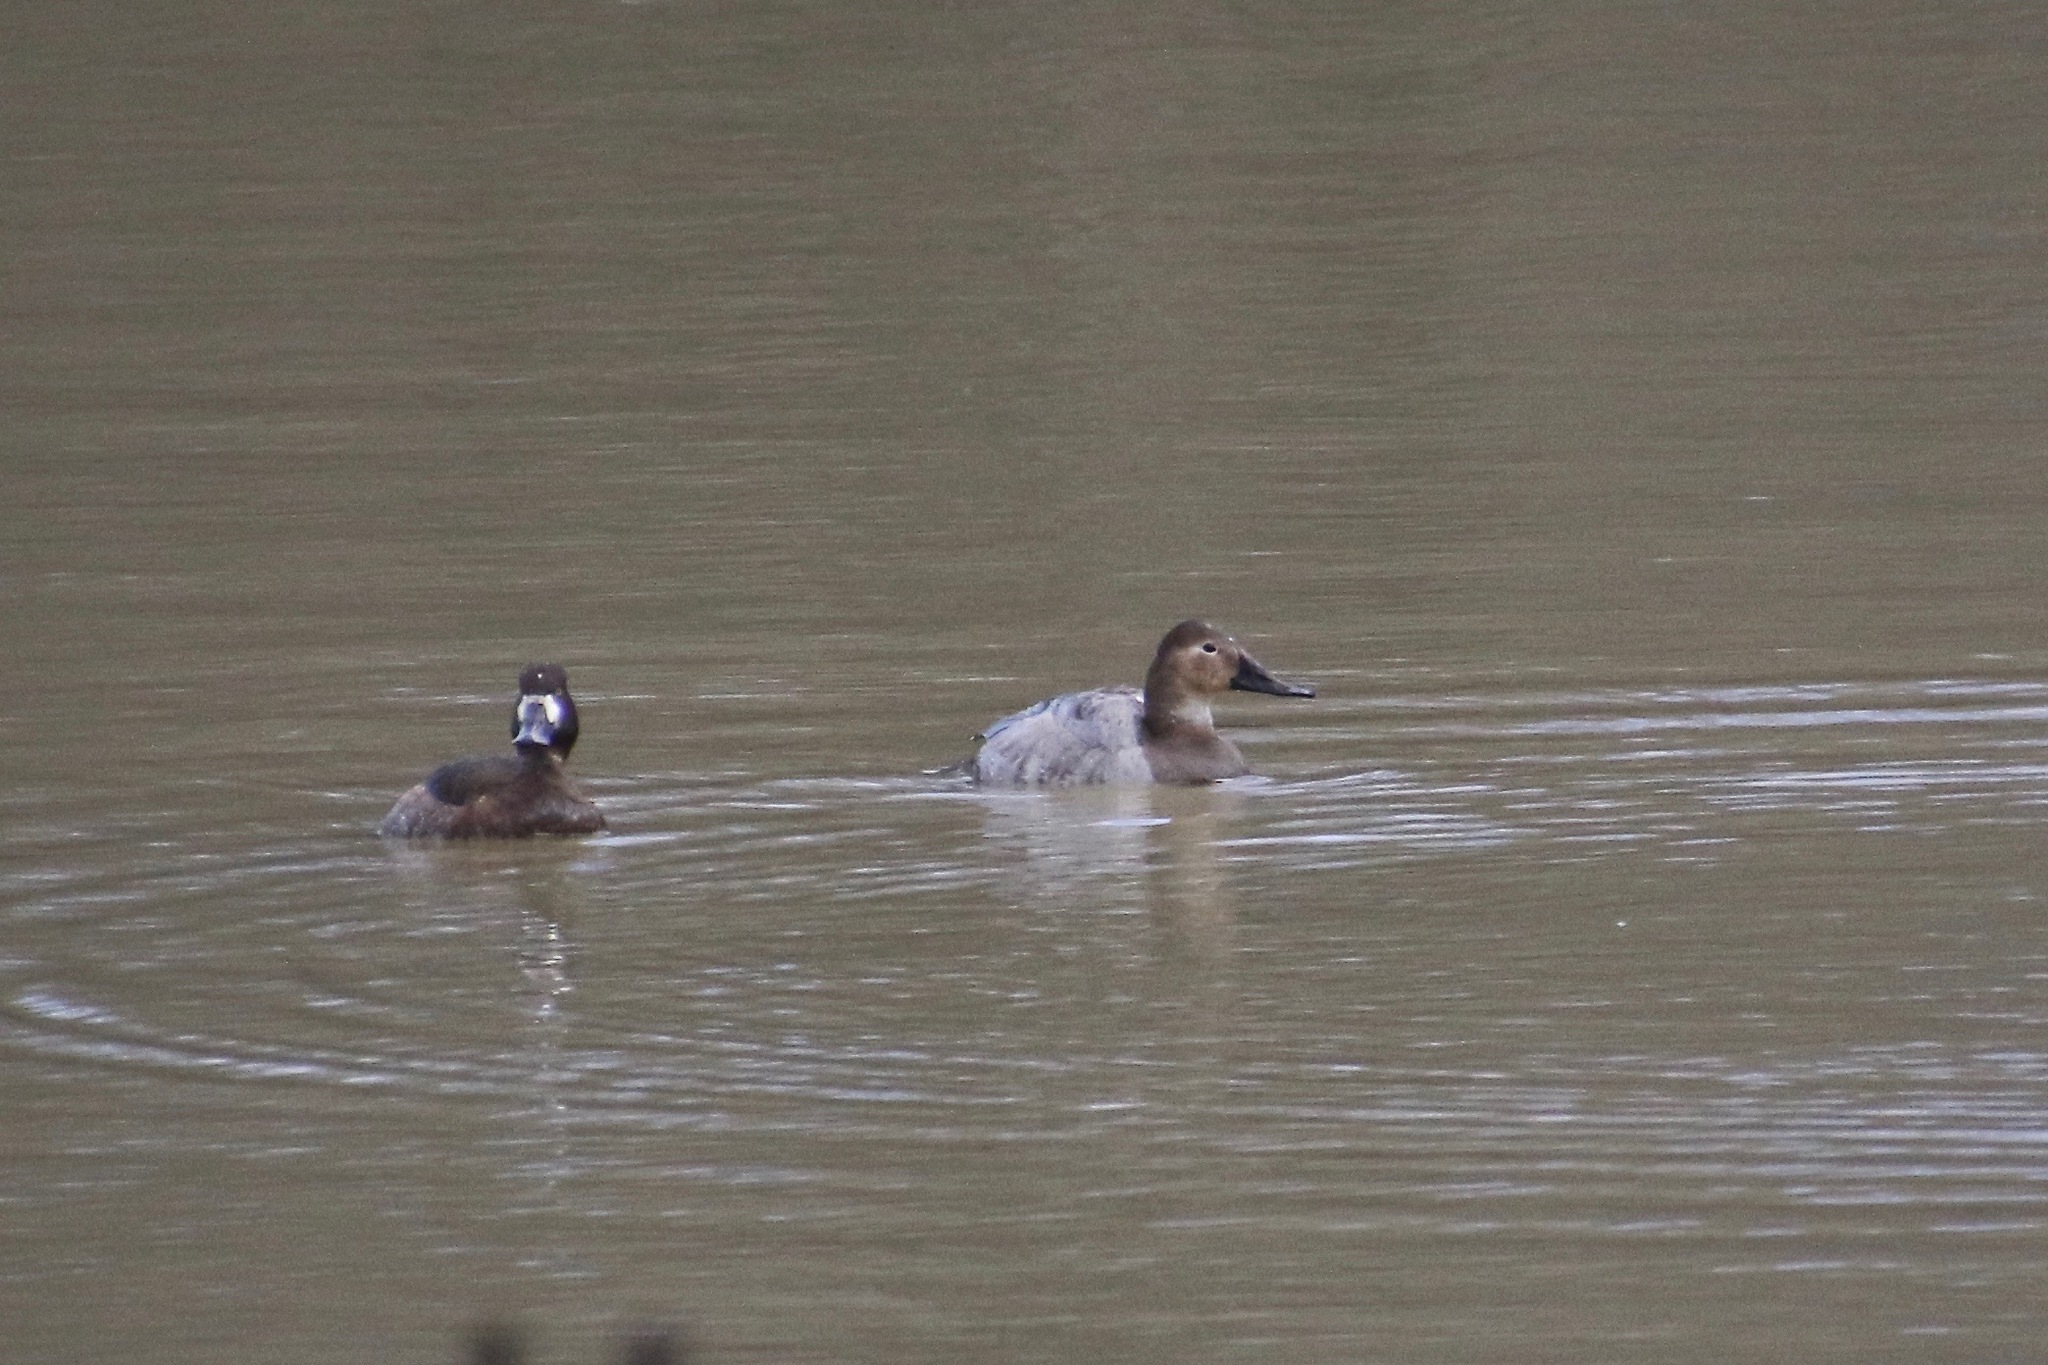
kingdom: Animalia
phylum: Chordata
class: Aves
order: Anseriformes
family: Anatidae
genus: Aythya
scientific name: Aythya valisineria
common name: Canvasback
